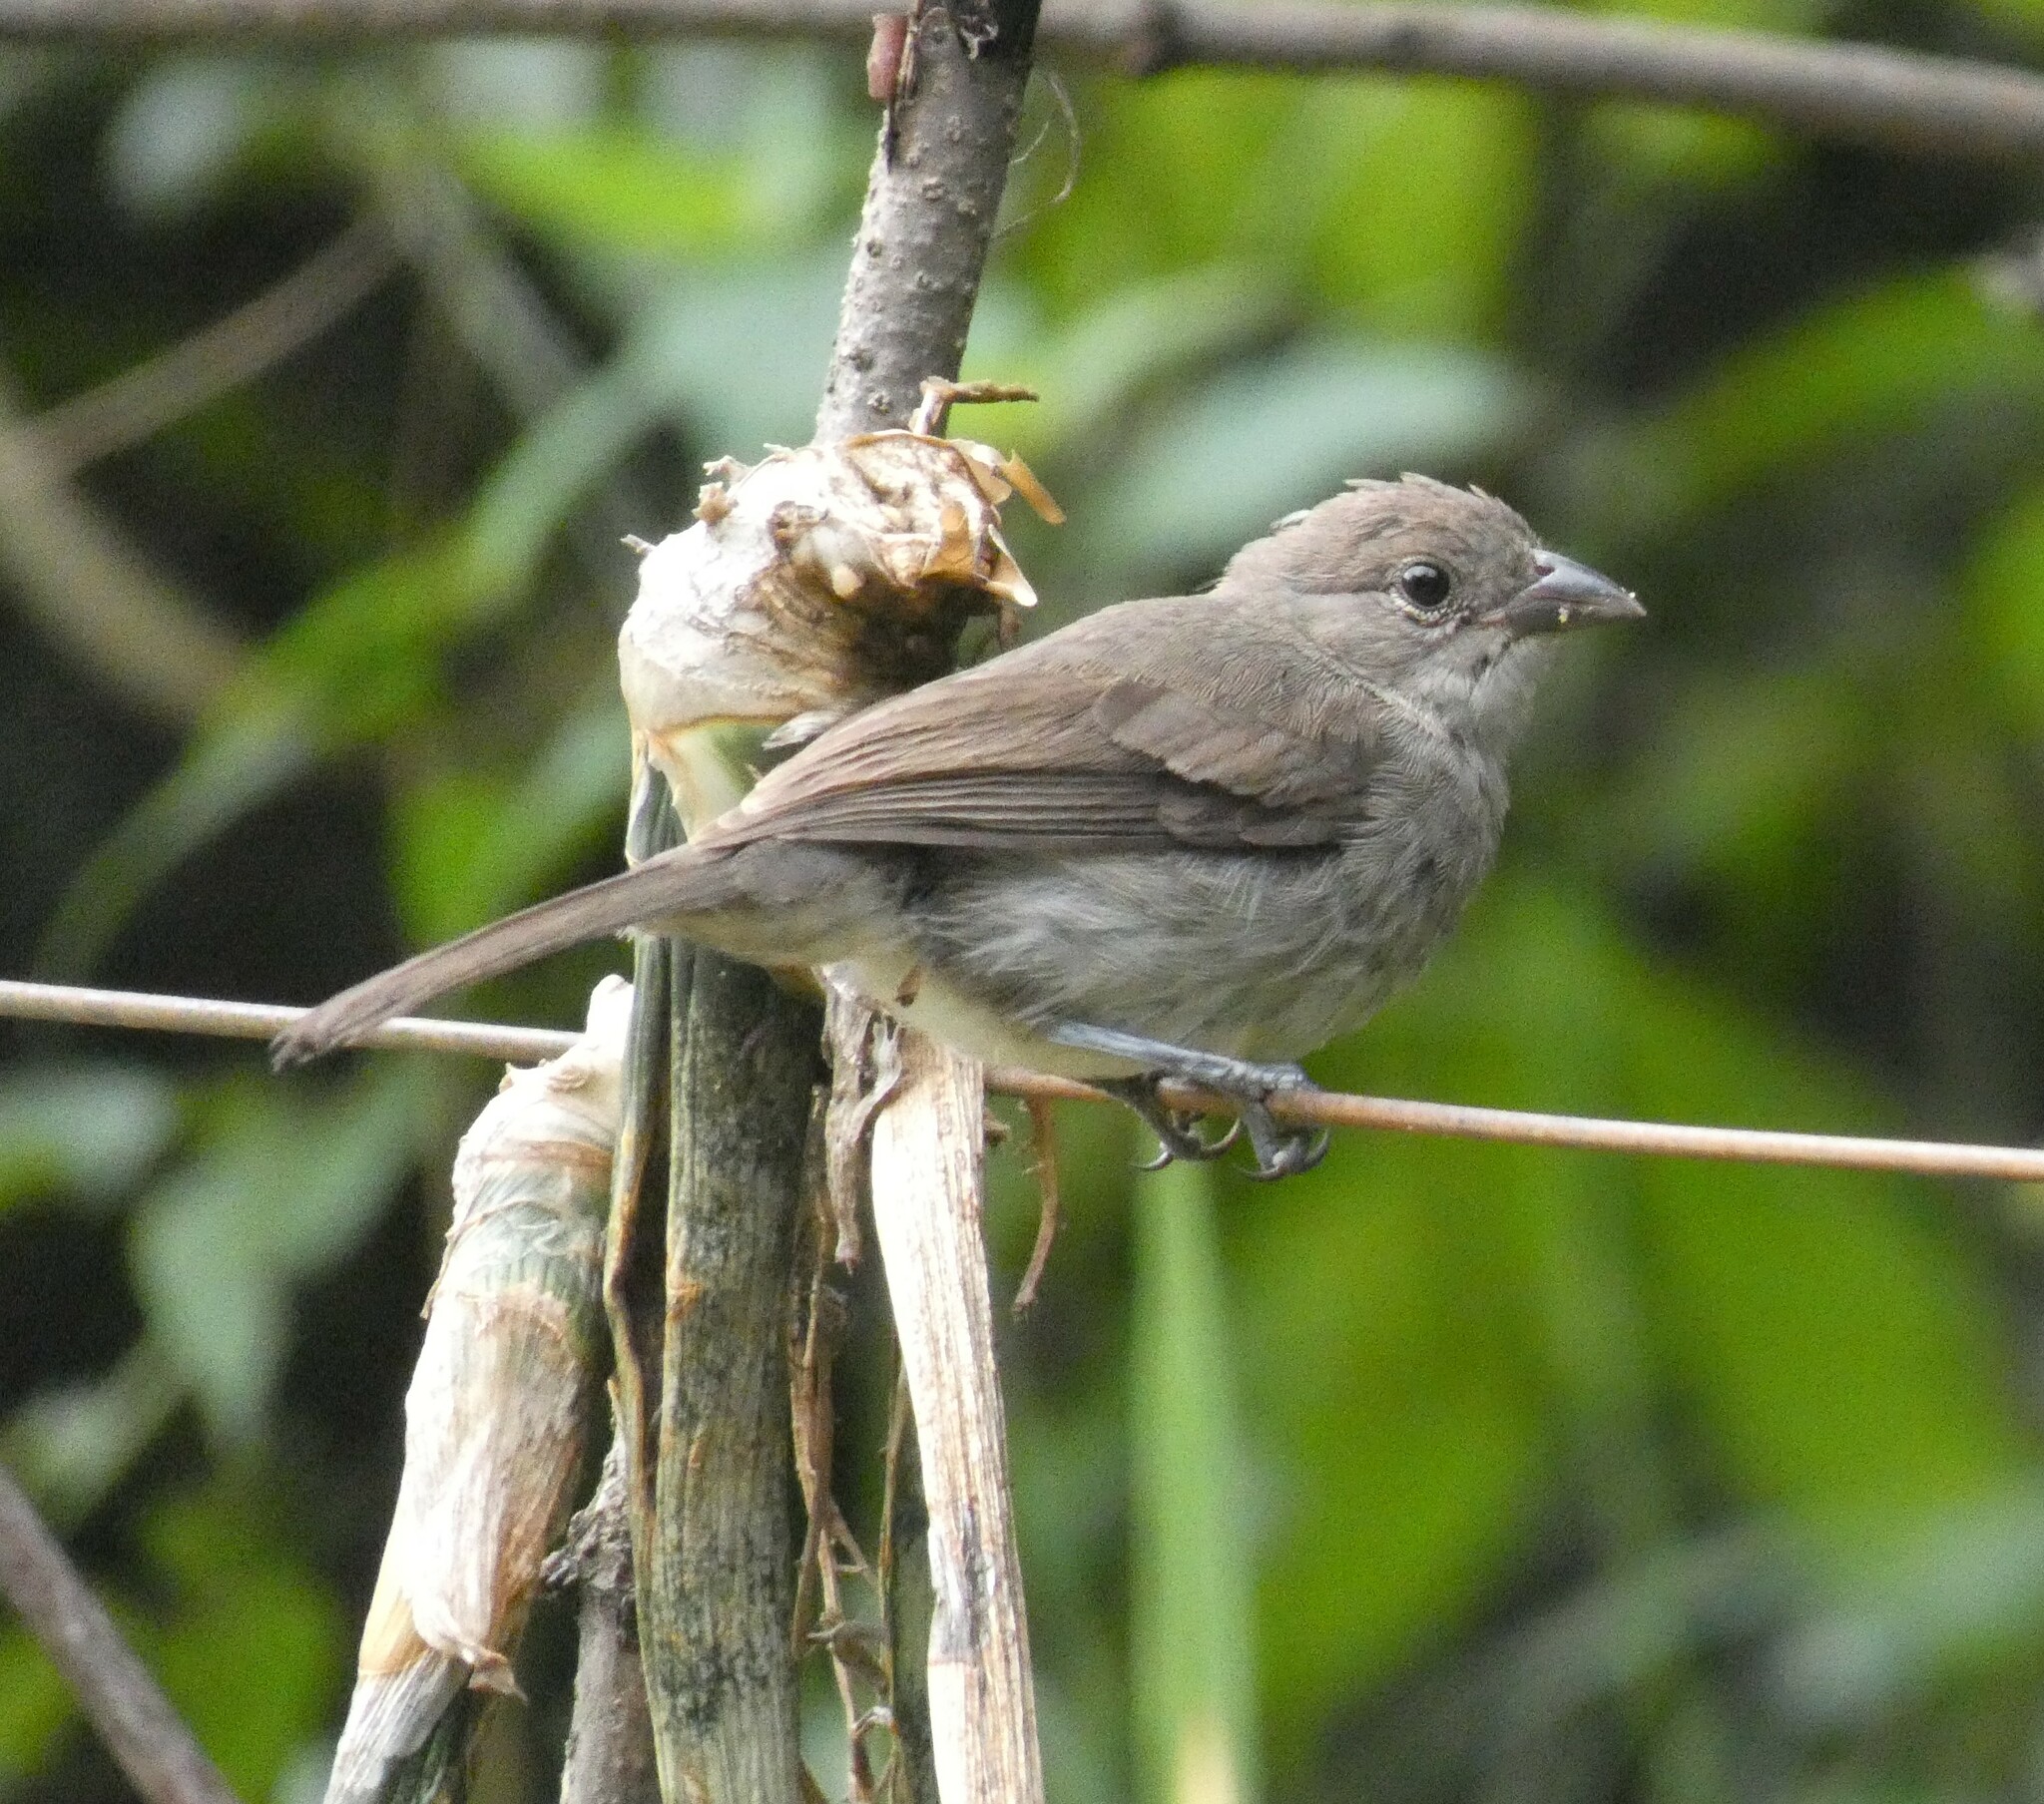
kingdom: Animalia
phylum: Chordata
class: Aves
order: Passeriformes
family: Thraupidae
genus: Coryphospingus
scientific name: Coryphospingus pileatus
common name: Grey pileated finch
